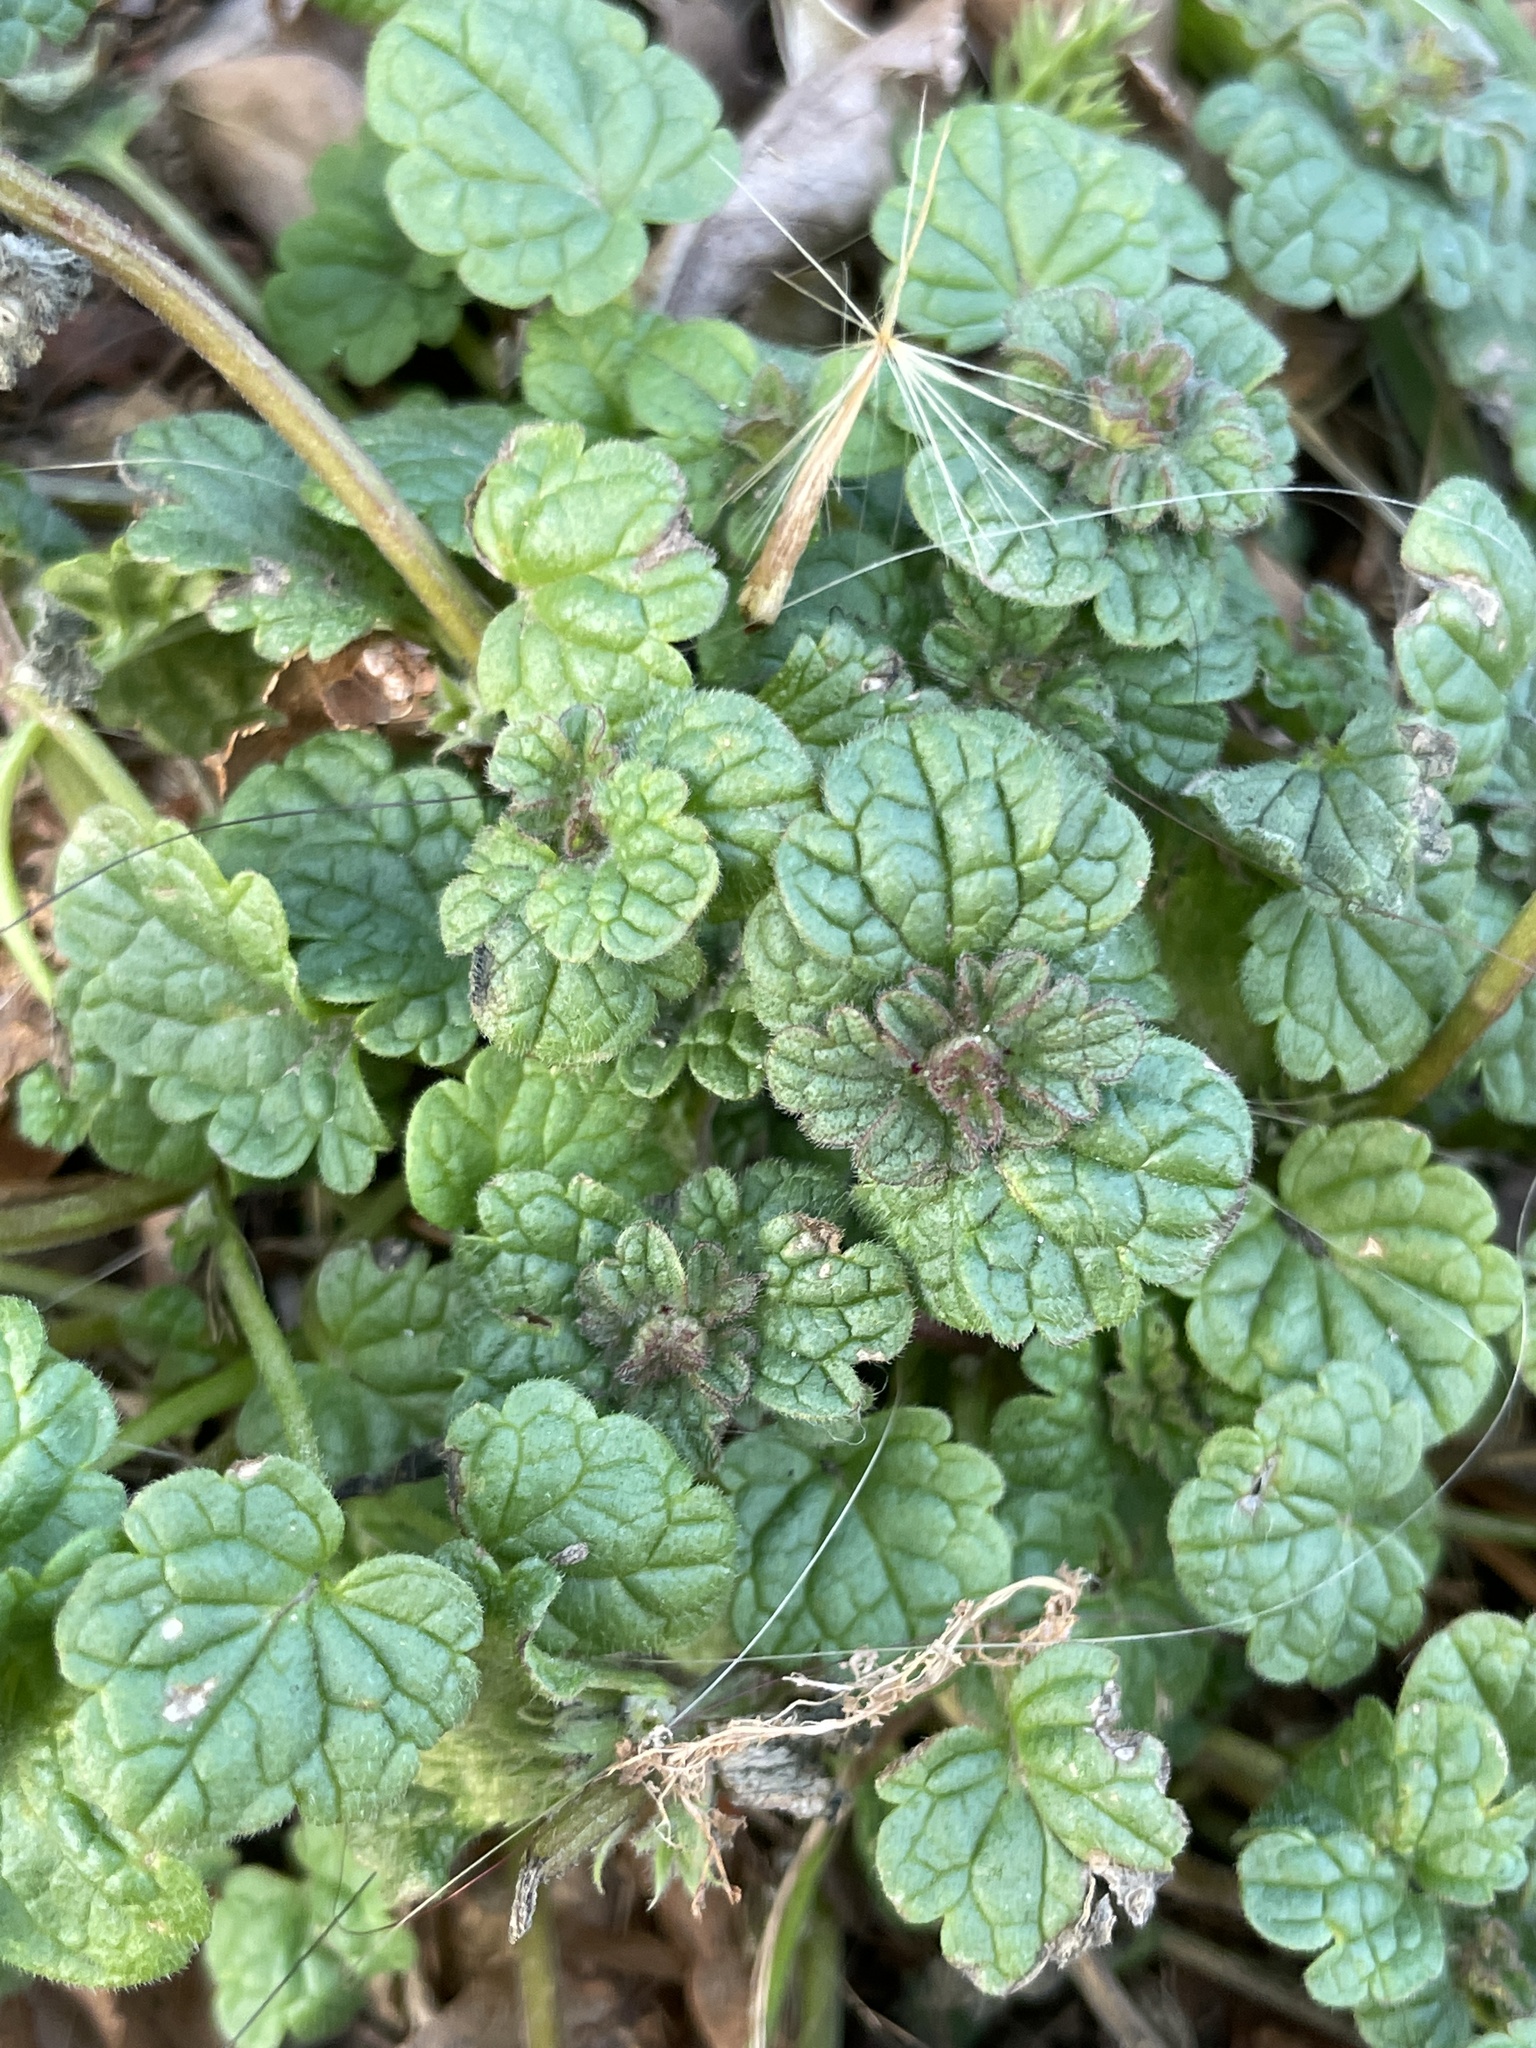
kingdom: Plantae
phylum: Tracheophyta
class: Magnoliopsida
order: Lamiales
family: Lamiaceae
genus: Lamium
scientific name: Lamium amplexicaule
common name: Henbit dead-nettle
